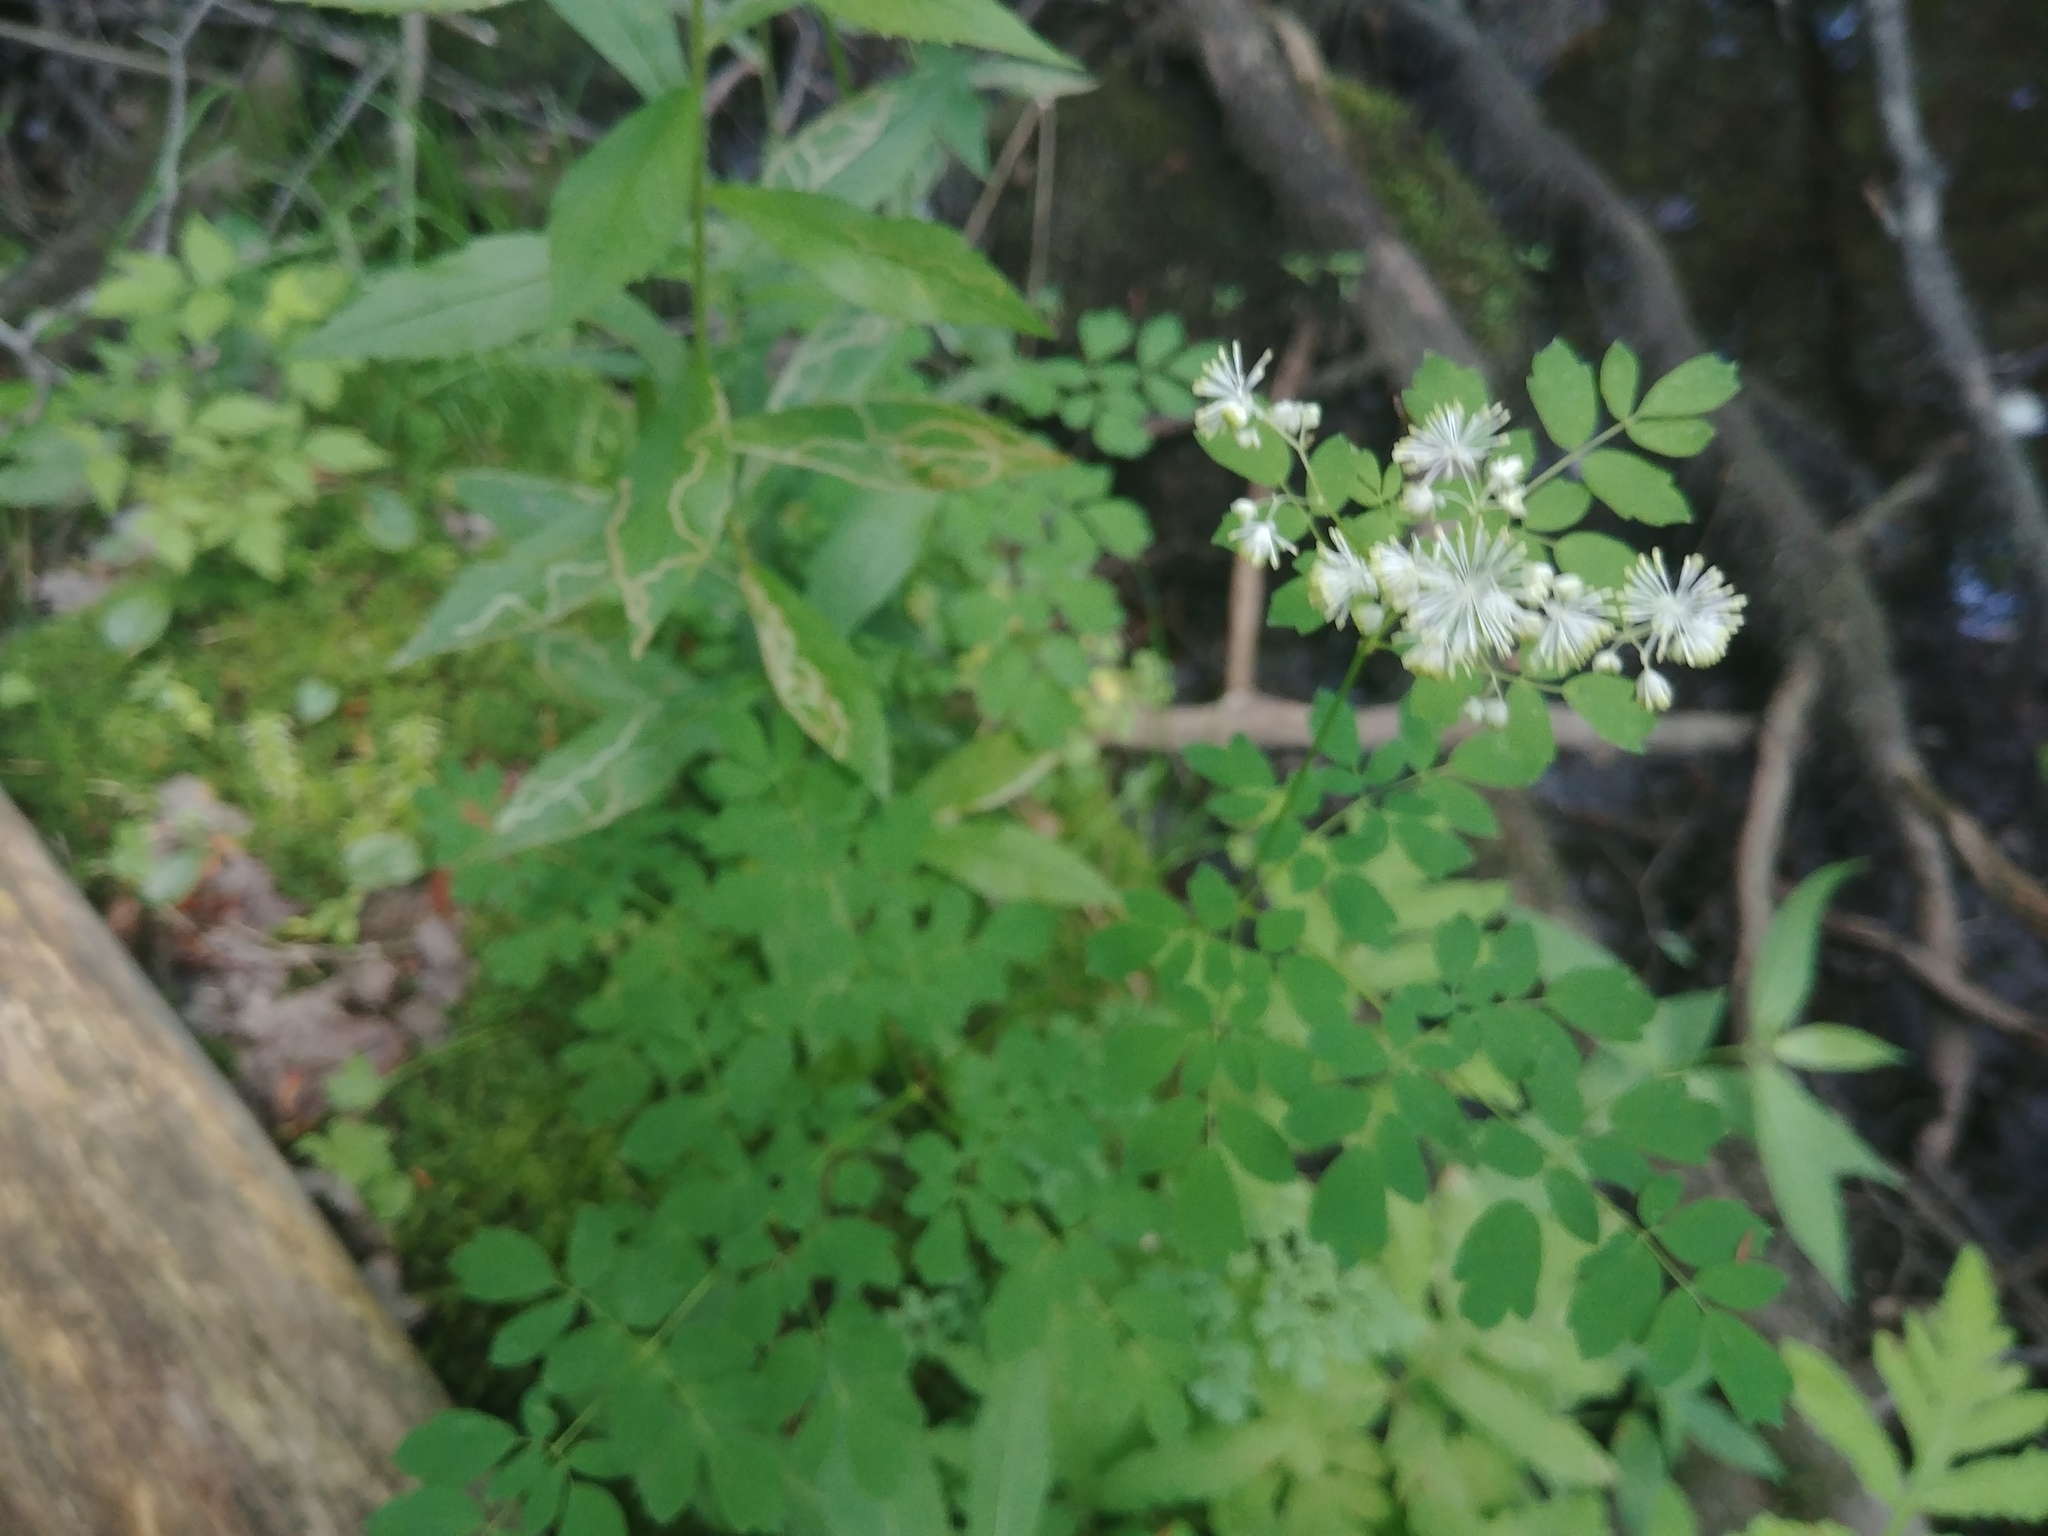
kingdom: Plantae
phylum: Tracheophyta
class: Magnoliopsida
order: Ranunculales
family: Ranunculaceae
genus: Thalictrum
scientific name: Thalictrum pubescens
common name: King-of-the-meadow
